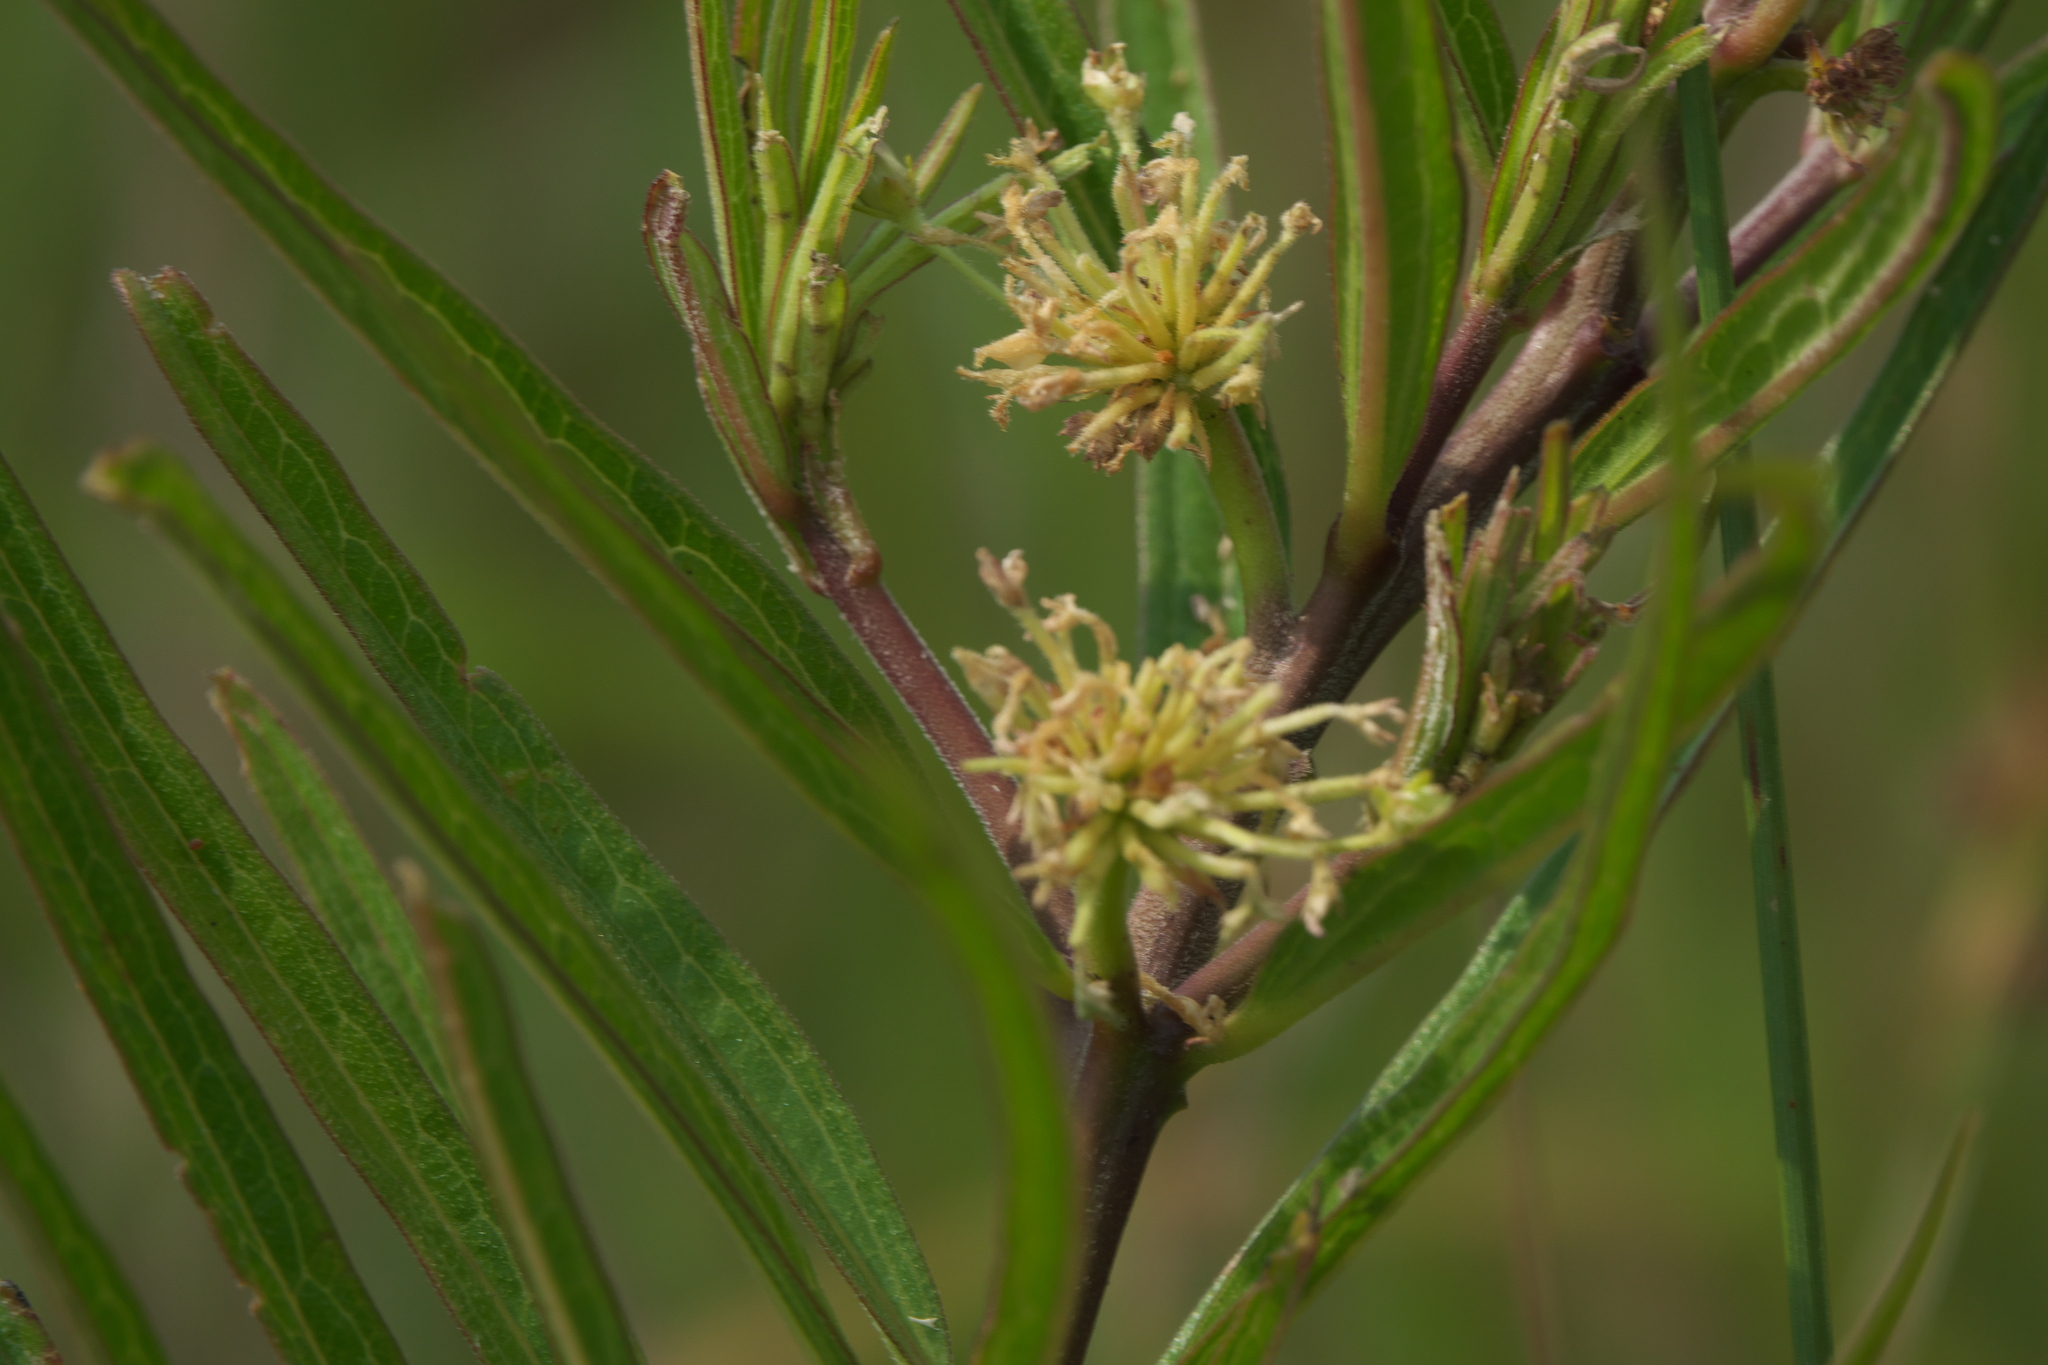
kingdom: Plantae
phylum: Tracheophyta
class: Magnoliopsida
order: Gentianales
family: Apocynaceae
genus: Asclepias
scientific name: Asclepias hirtella
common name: Prairie milkweed
